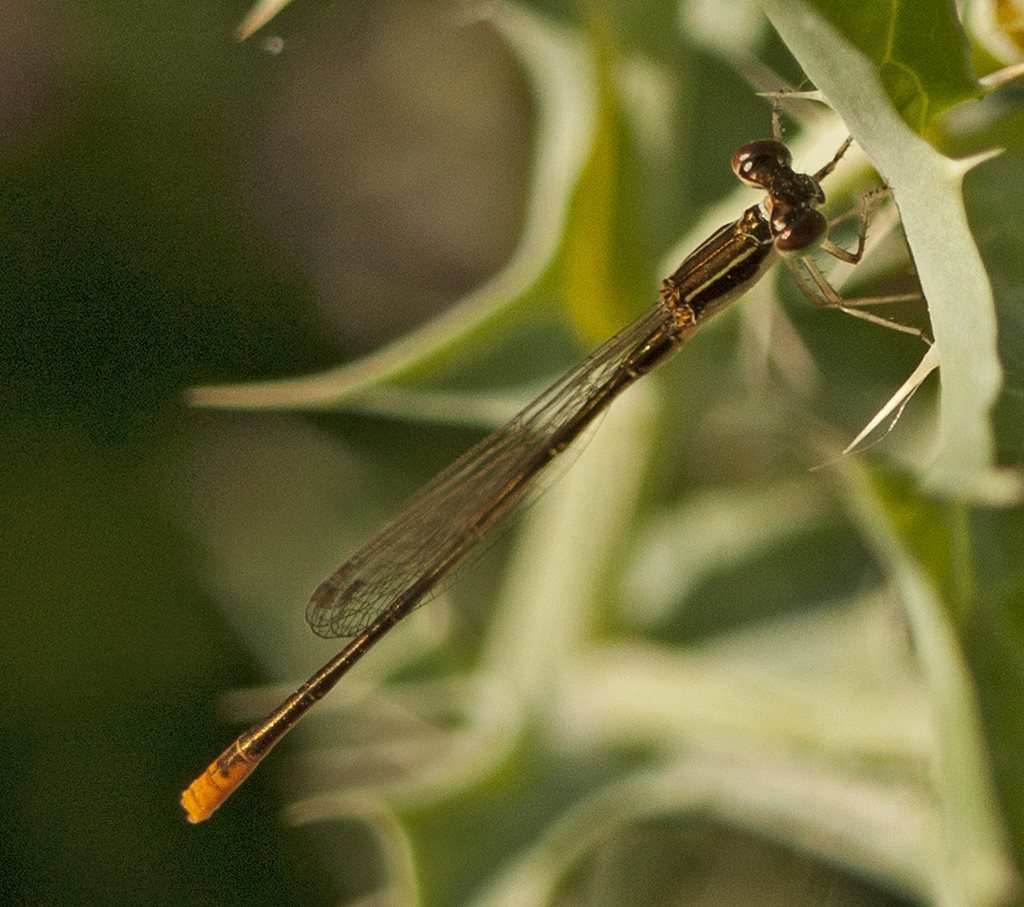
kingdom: Animalia
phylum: Arthropoda
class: Insecta
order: Odonata
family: Coenagrionidae
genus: Agriocnemis
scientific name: Agriocnemis pygmaea
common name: Pygmy wisp
